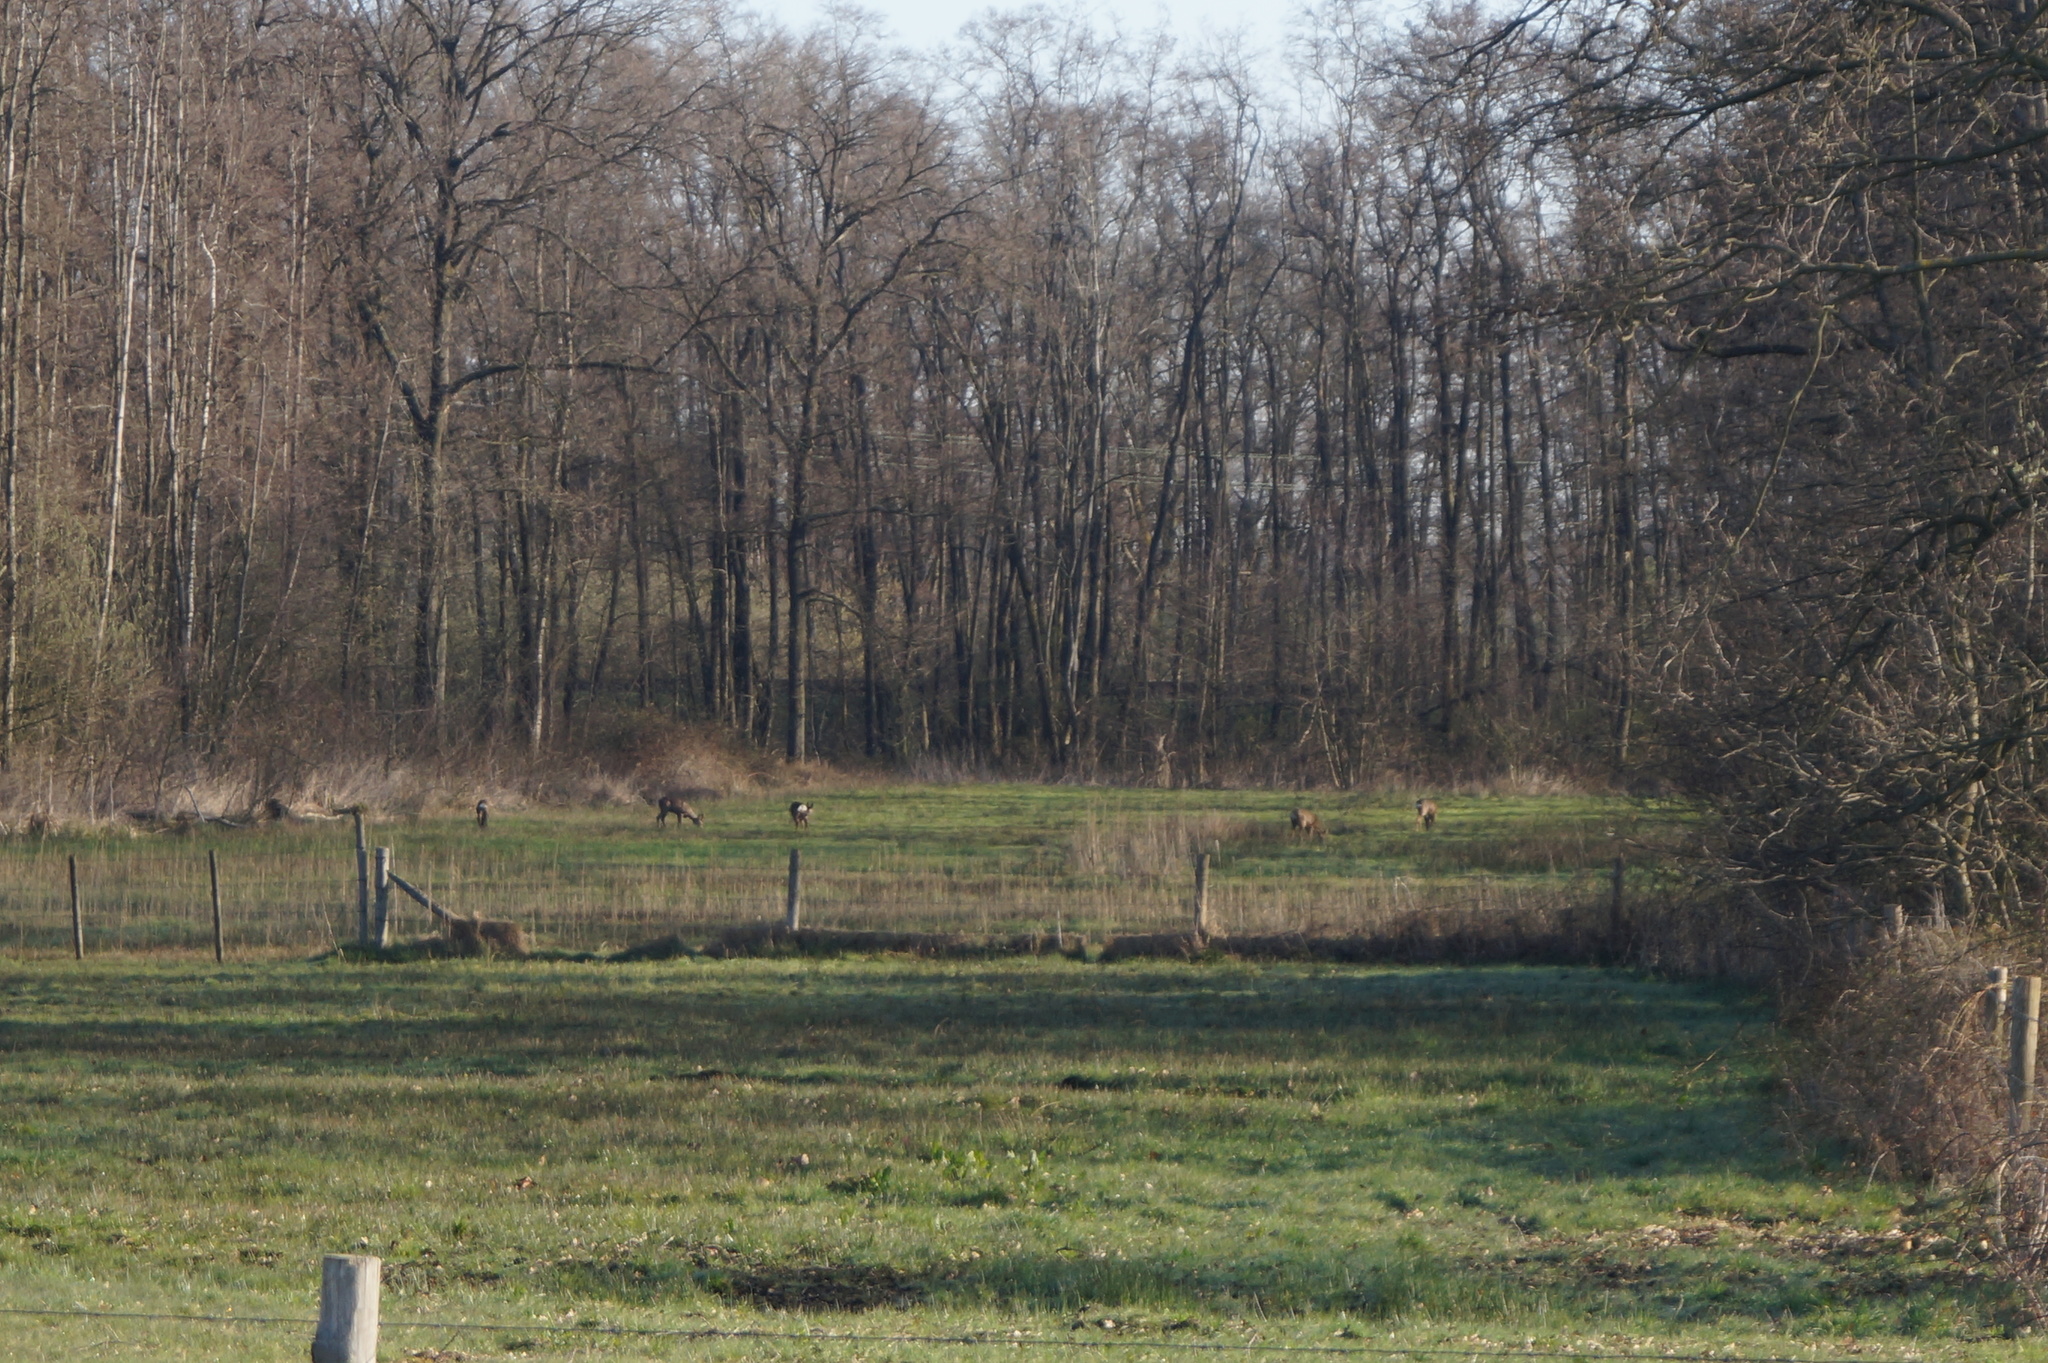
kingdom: Animalia
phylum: Chordata
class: Mammalia
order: Artiodactyla
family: Cervidae
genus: Capreolus
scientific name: Capreolus capreolus
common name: Western roe deer
